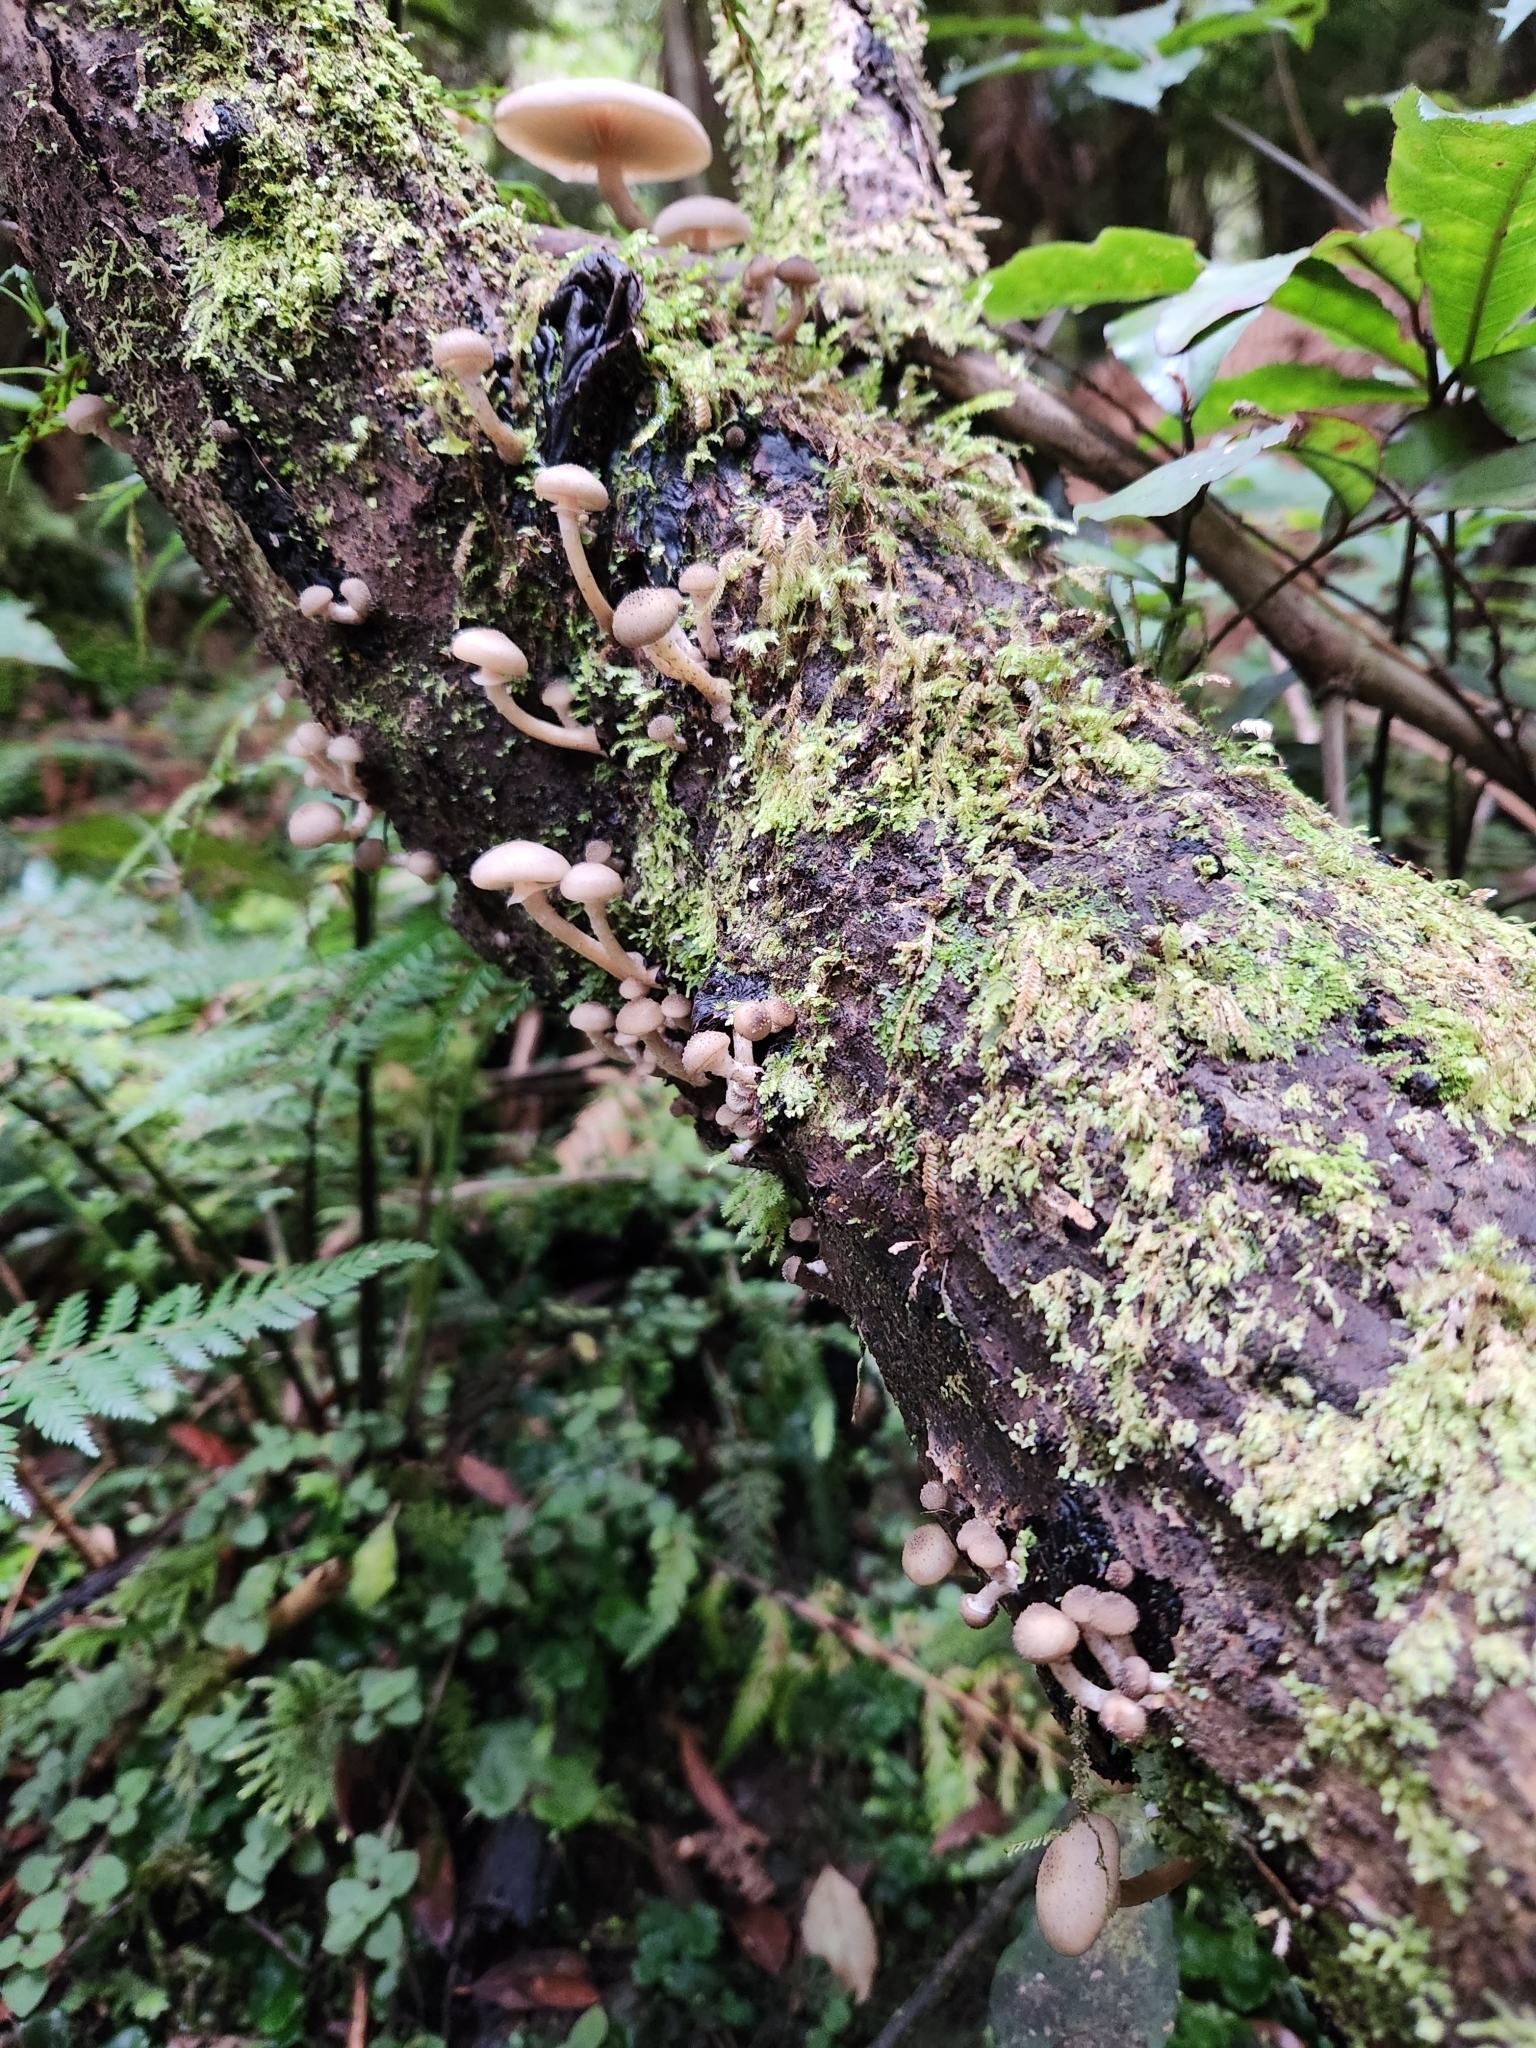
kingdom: Fungi
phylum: Basidiomycota
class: Agaricomycetes
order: Agaricales
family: Physalacriaceae
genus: Armillaria
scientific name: Armillaria novae-zelandiae
